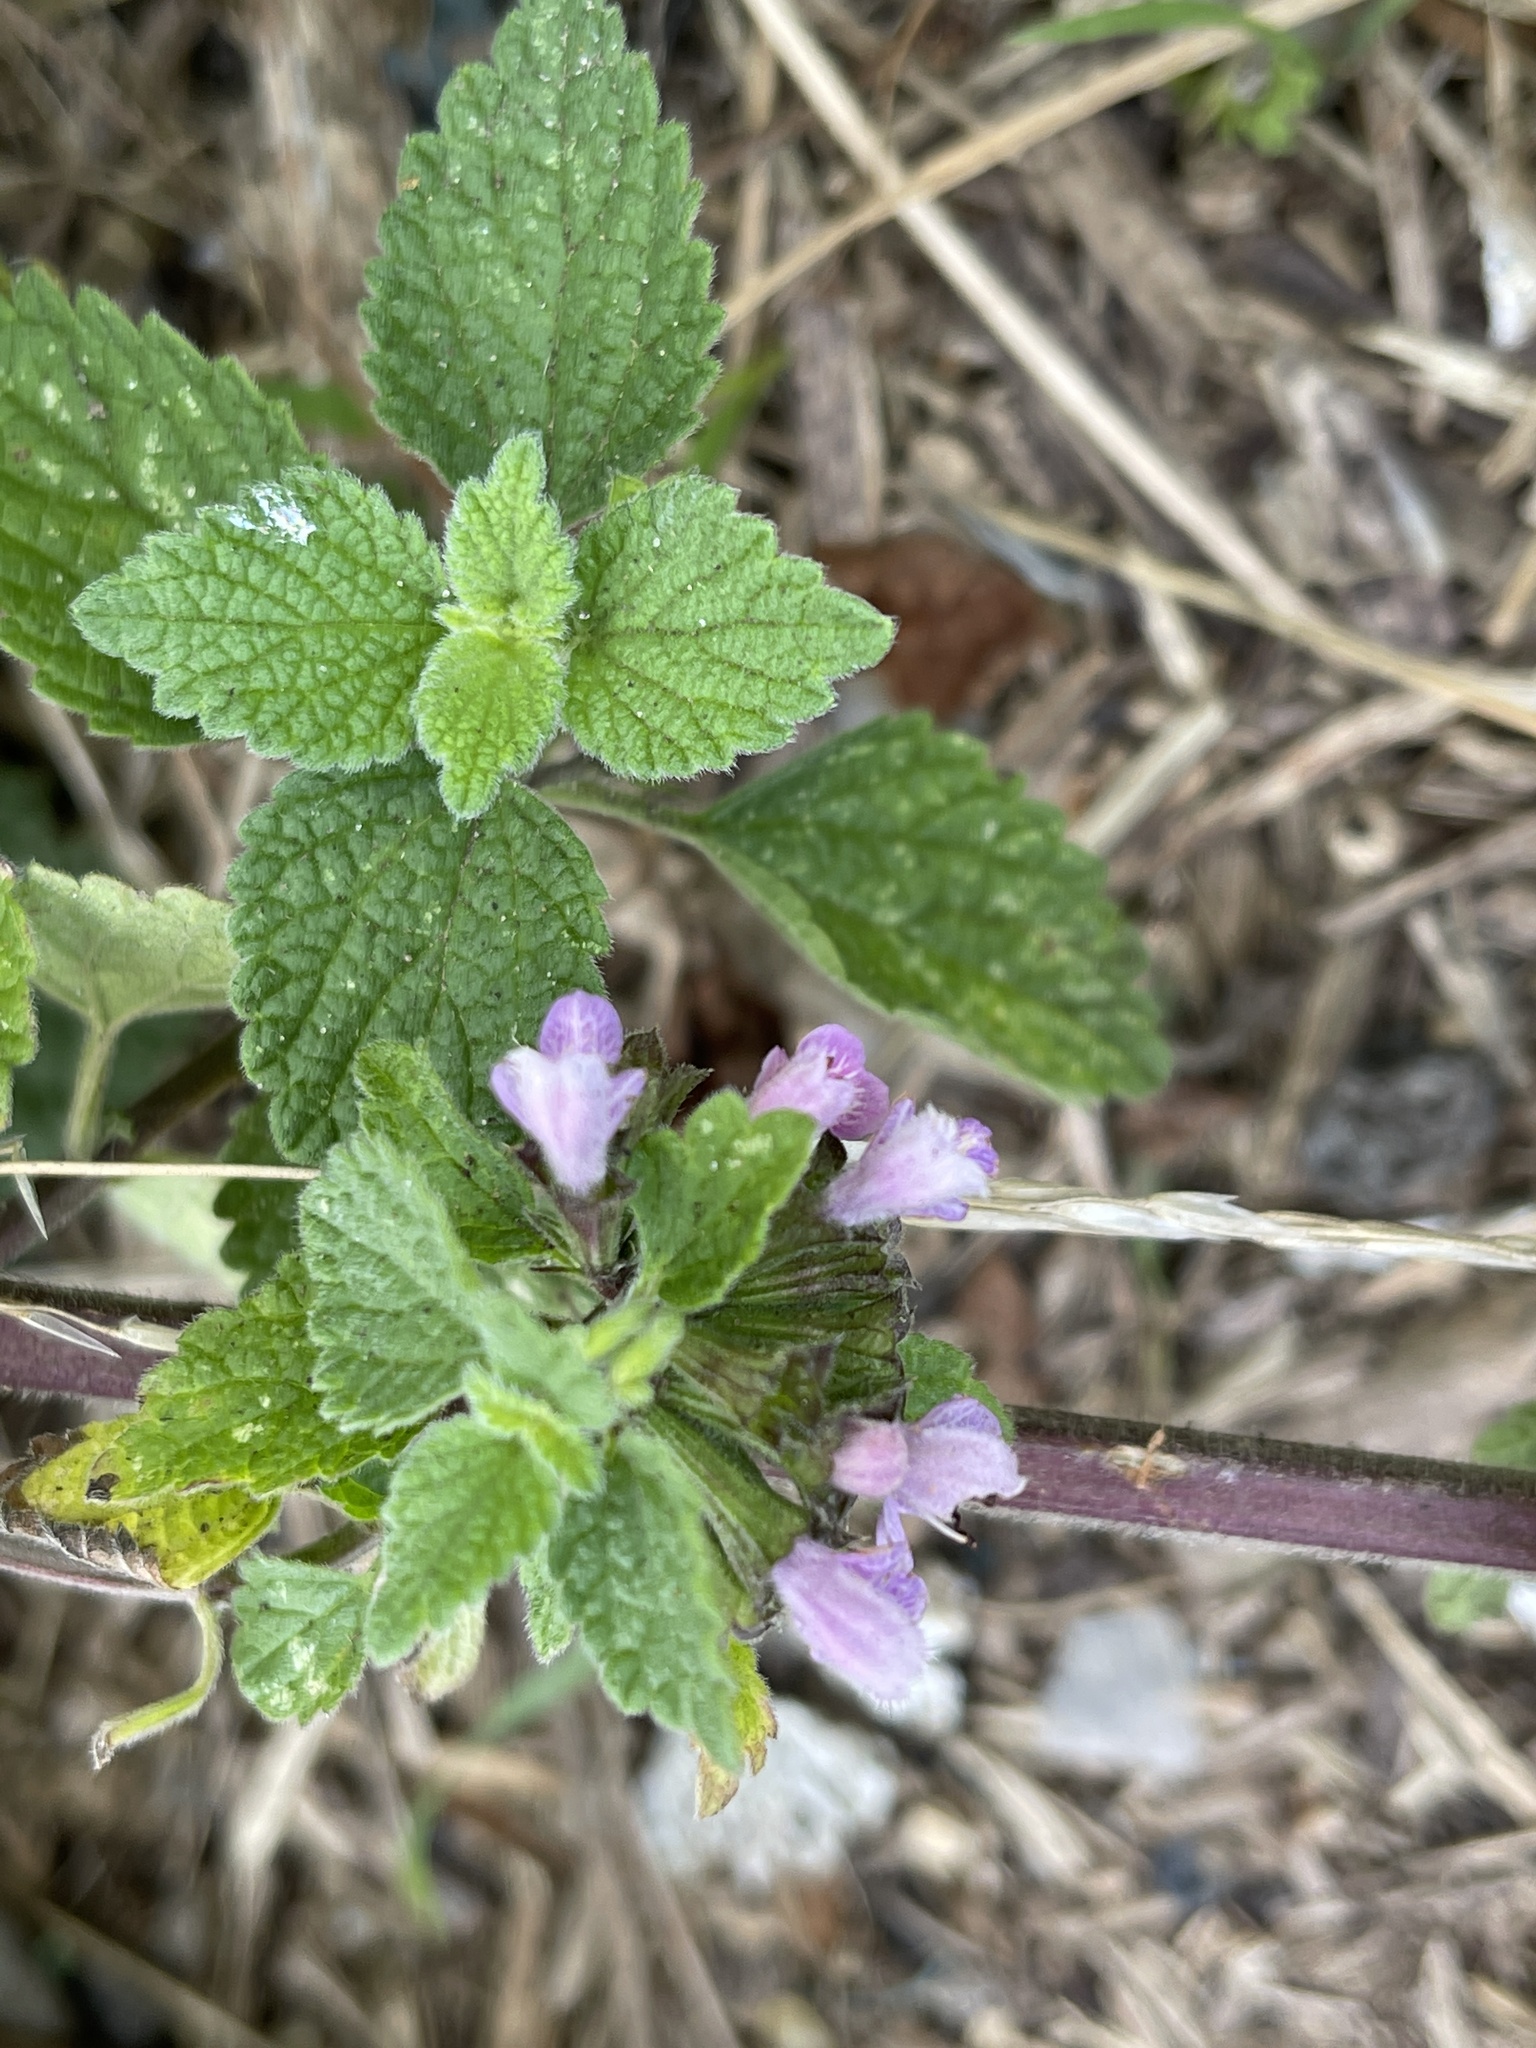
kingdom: Plantae
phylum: Tracheophyta
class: Magnoliopsida
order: Lamiales
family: Lamiaceae
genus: Ballota
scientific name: Ballota nigra
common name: Black horehound
